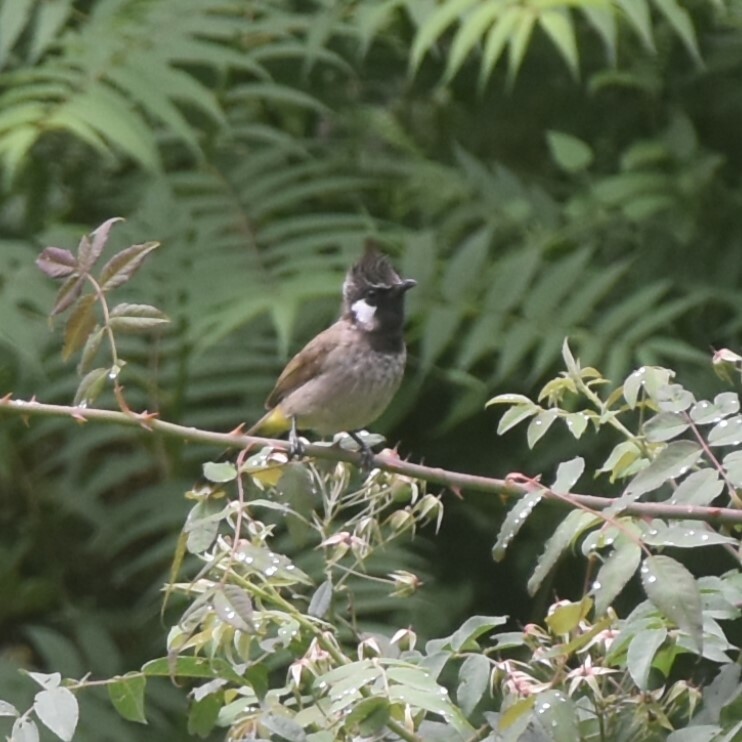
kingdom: Animalia
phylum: Chordata
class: Aves
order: Passeriformes
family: Pycnonotidae
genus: Pycnonotus
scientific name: Pycnonotus leucogenys
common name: Himalayan bulbul
